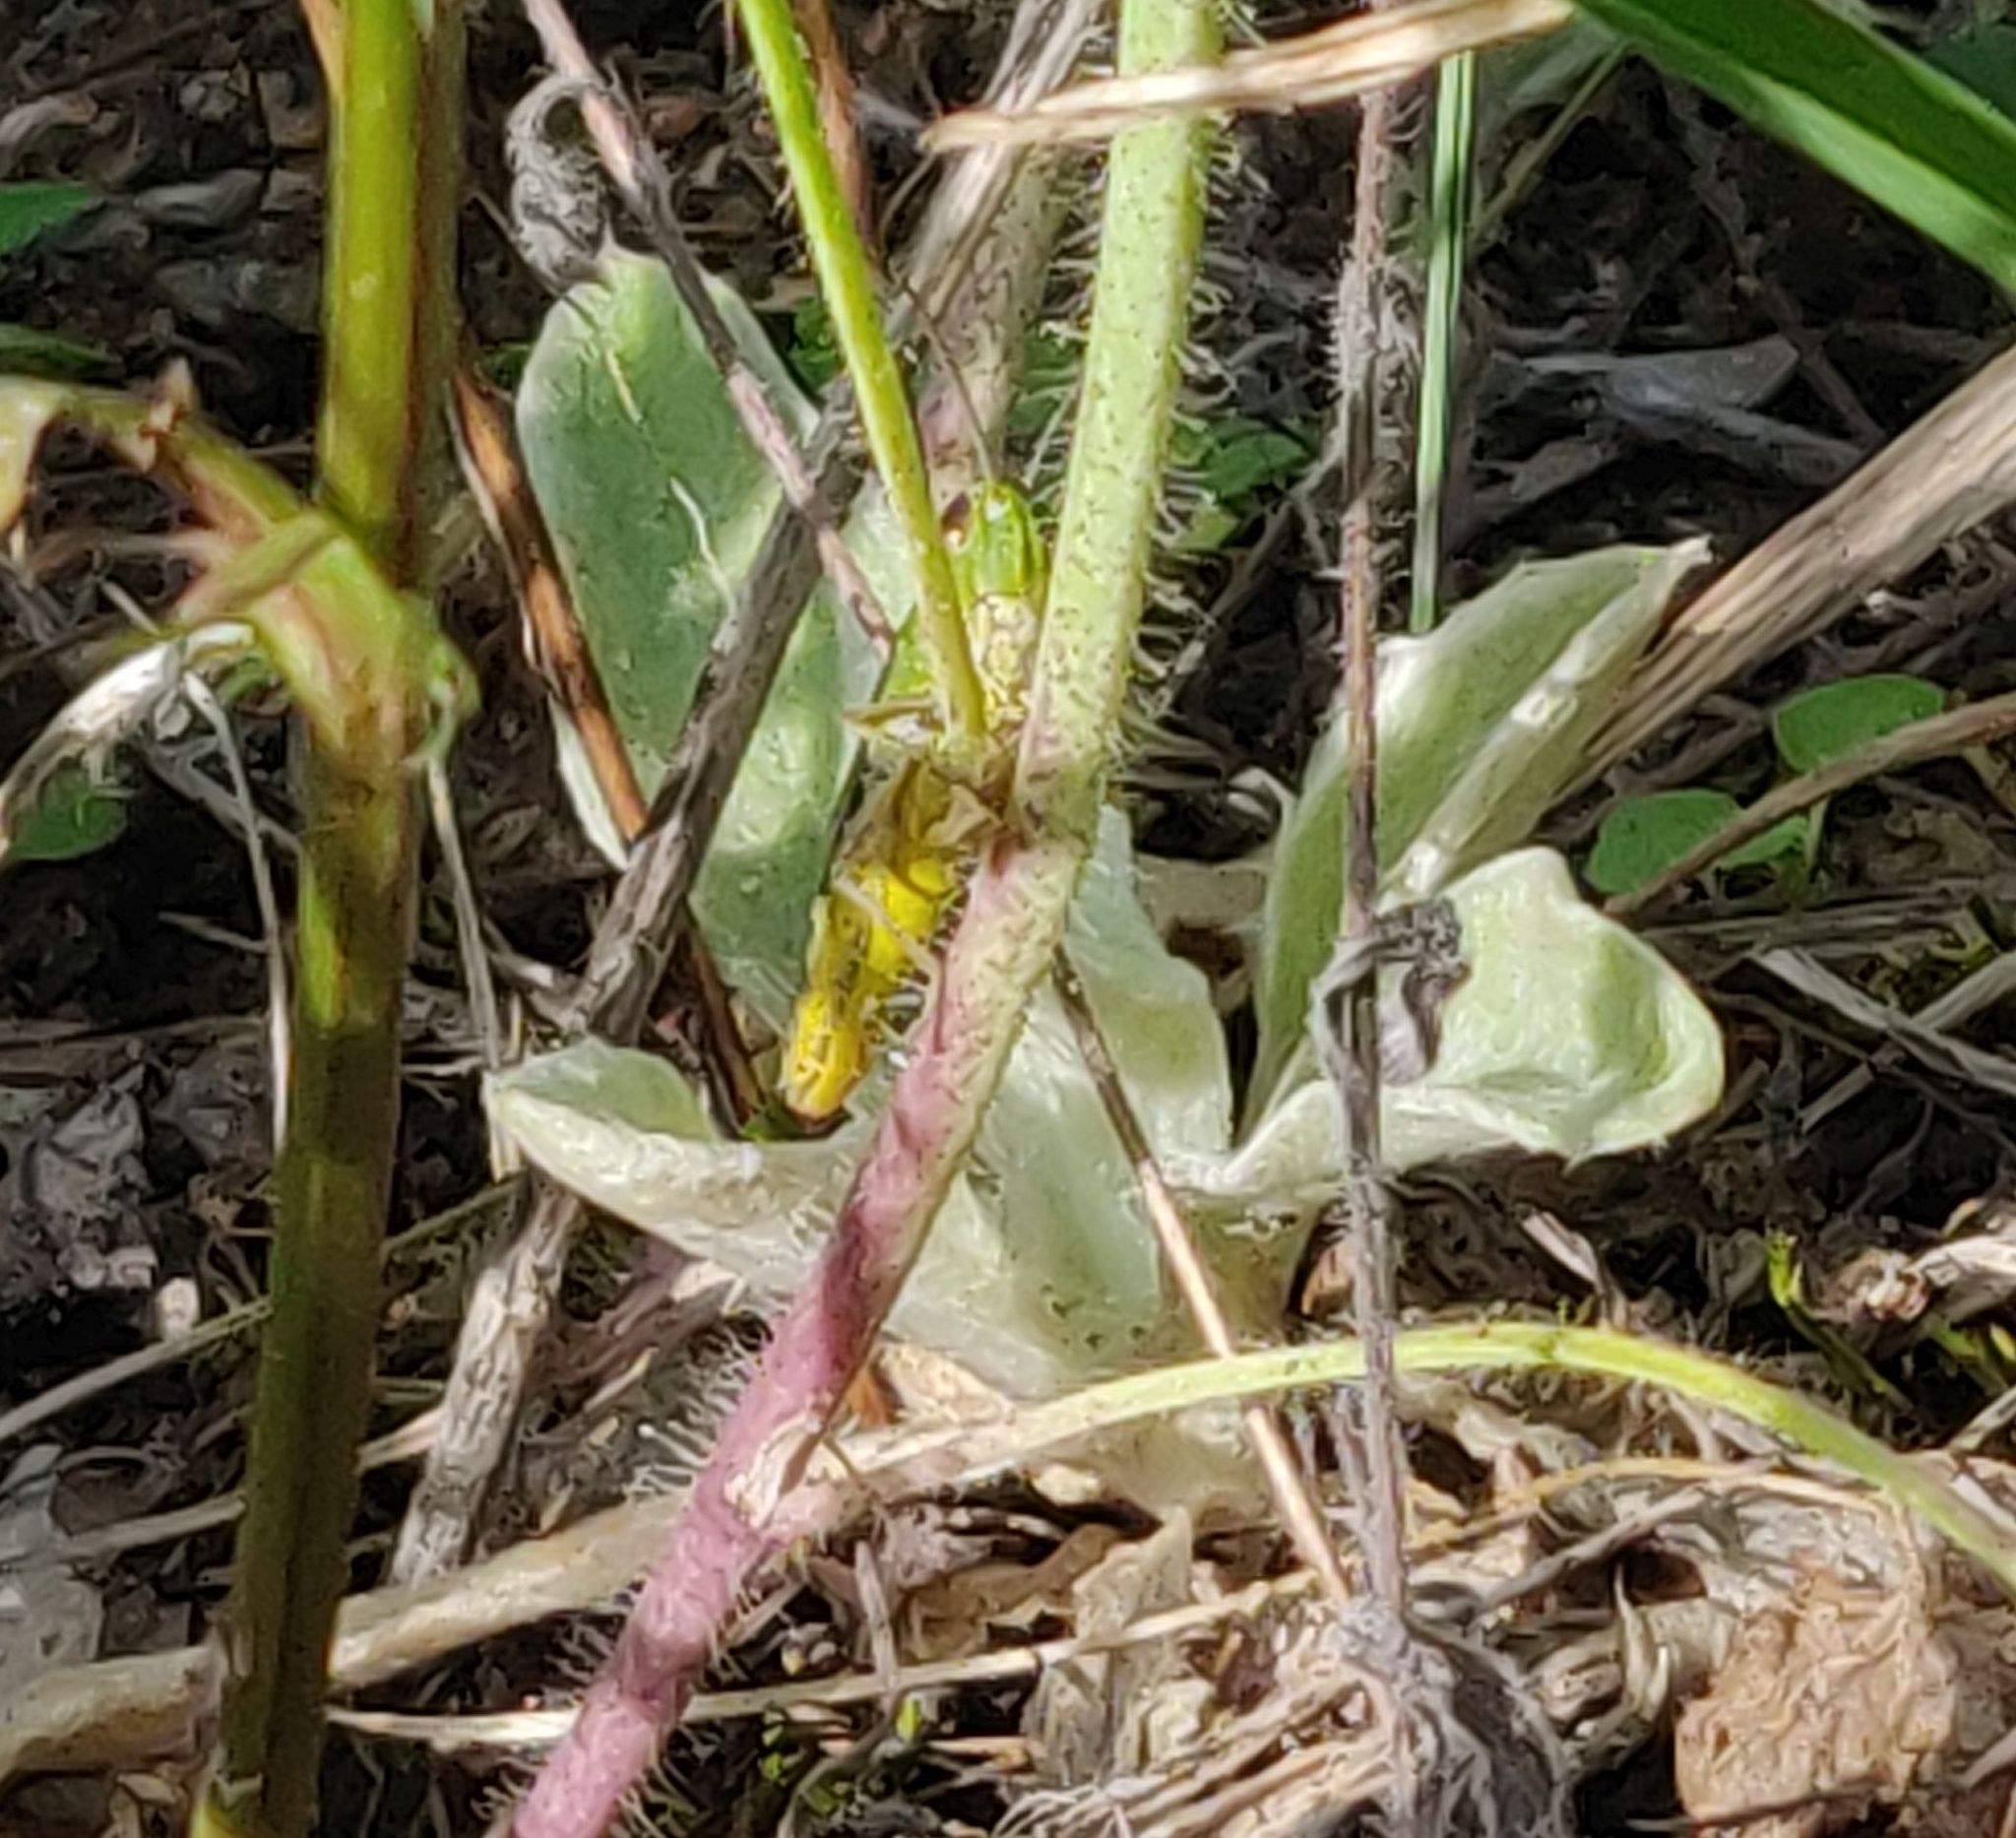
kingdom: Animalia
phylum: Arthropoda
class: Insecta
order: Orthoptera
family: Acrididae
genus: Pseudochorthippus
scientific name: Pseudochorthippus parallelus
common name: Meadow grasshopper
